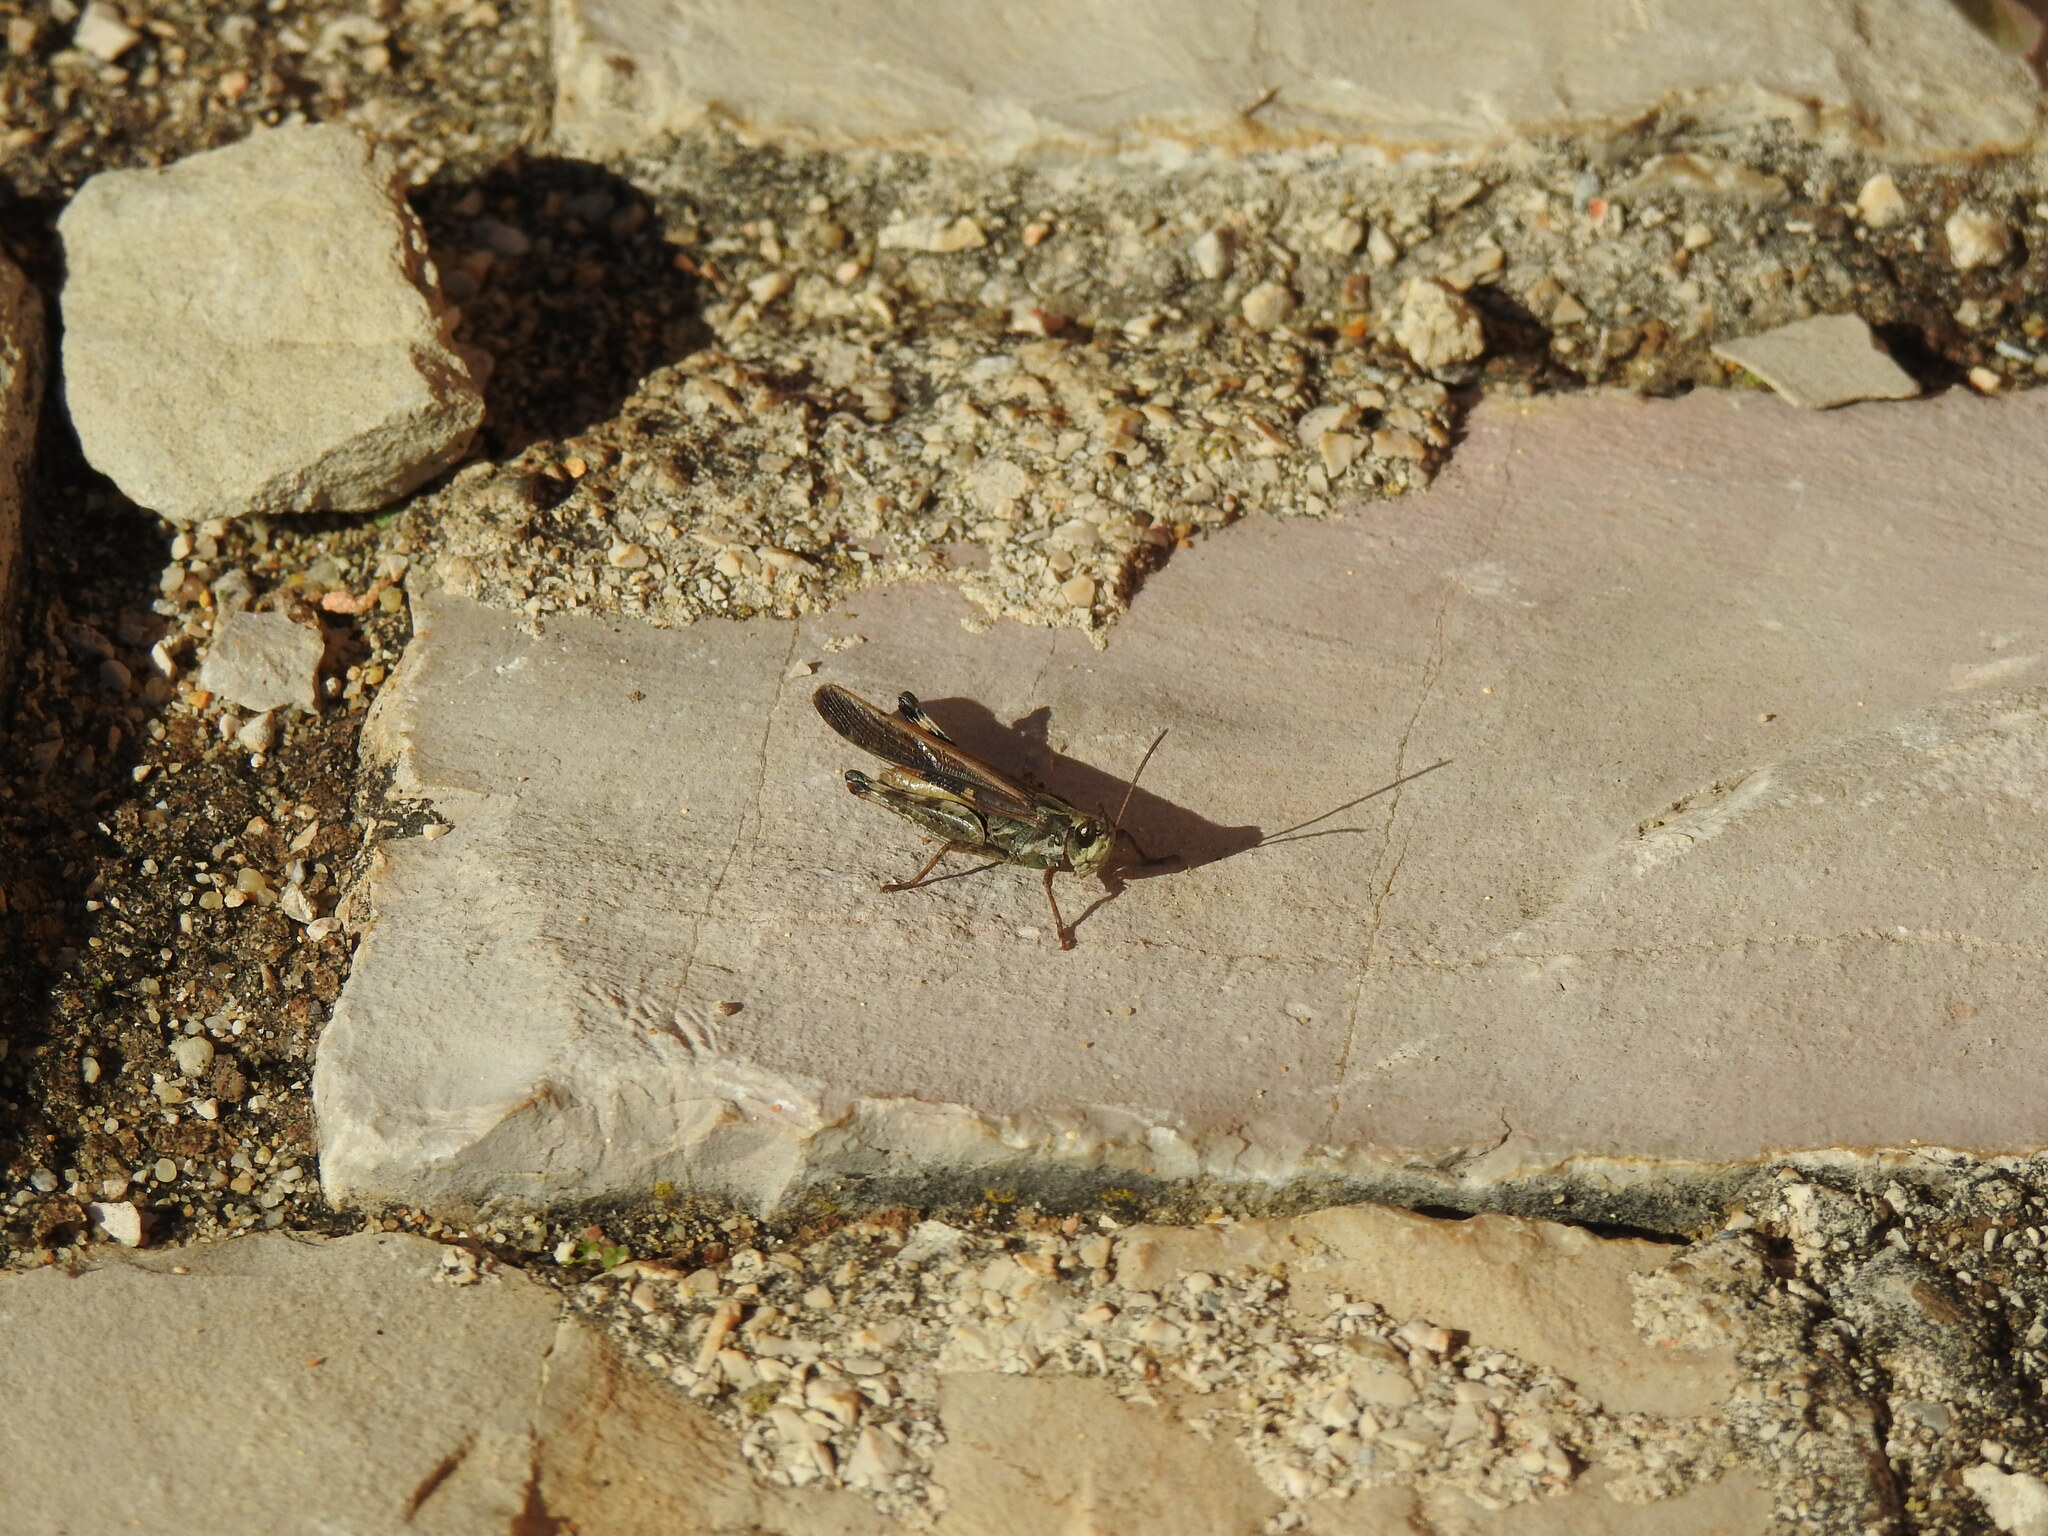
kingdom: Animalia
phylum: Arthropoda
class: Insecta
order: Orthoptera
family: Acrididae
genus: Aiolopus
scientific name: Aiolopus puissanti
